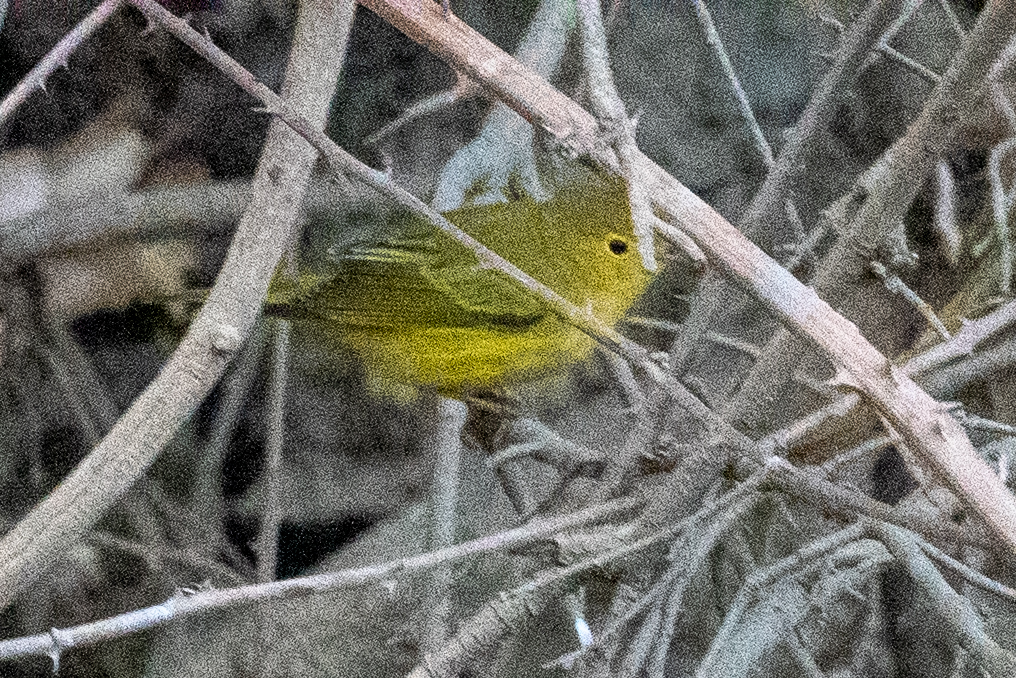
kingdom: Animalia
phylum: Chordata
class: Aves
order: Passeriformes
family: Parulidae
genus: Setophaga
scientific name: Setophaga petechia
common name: Yellow warbler
